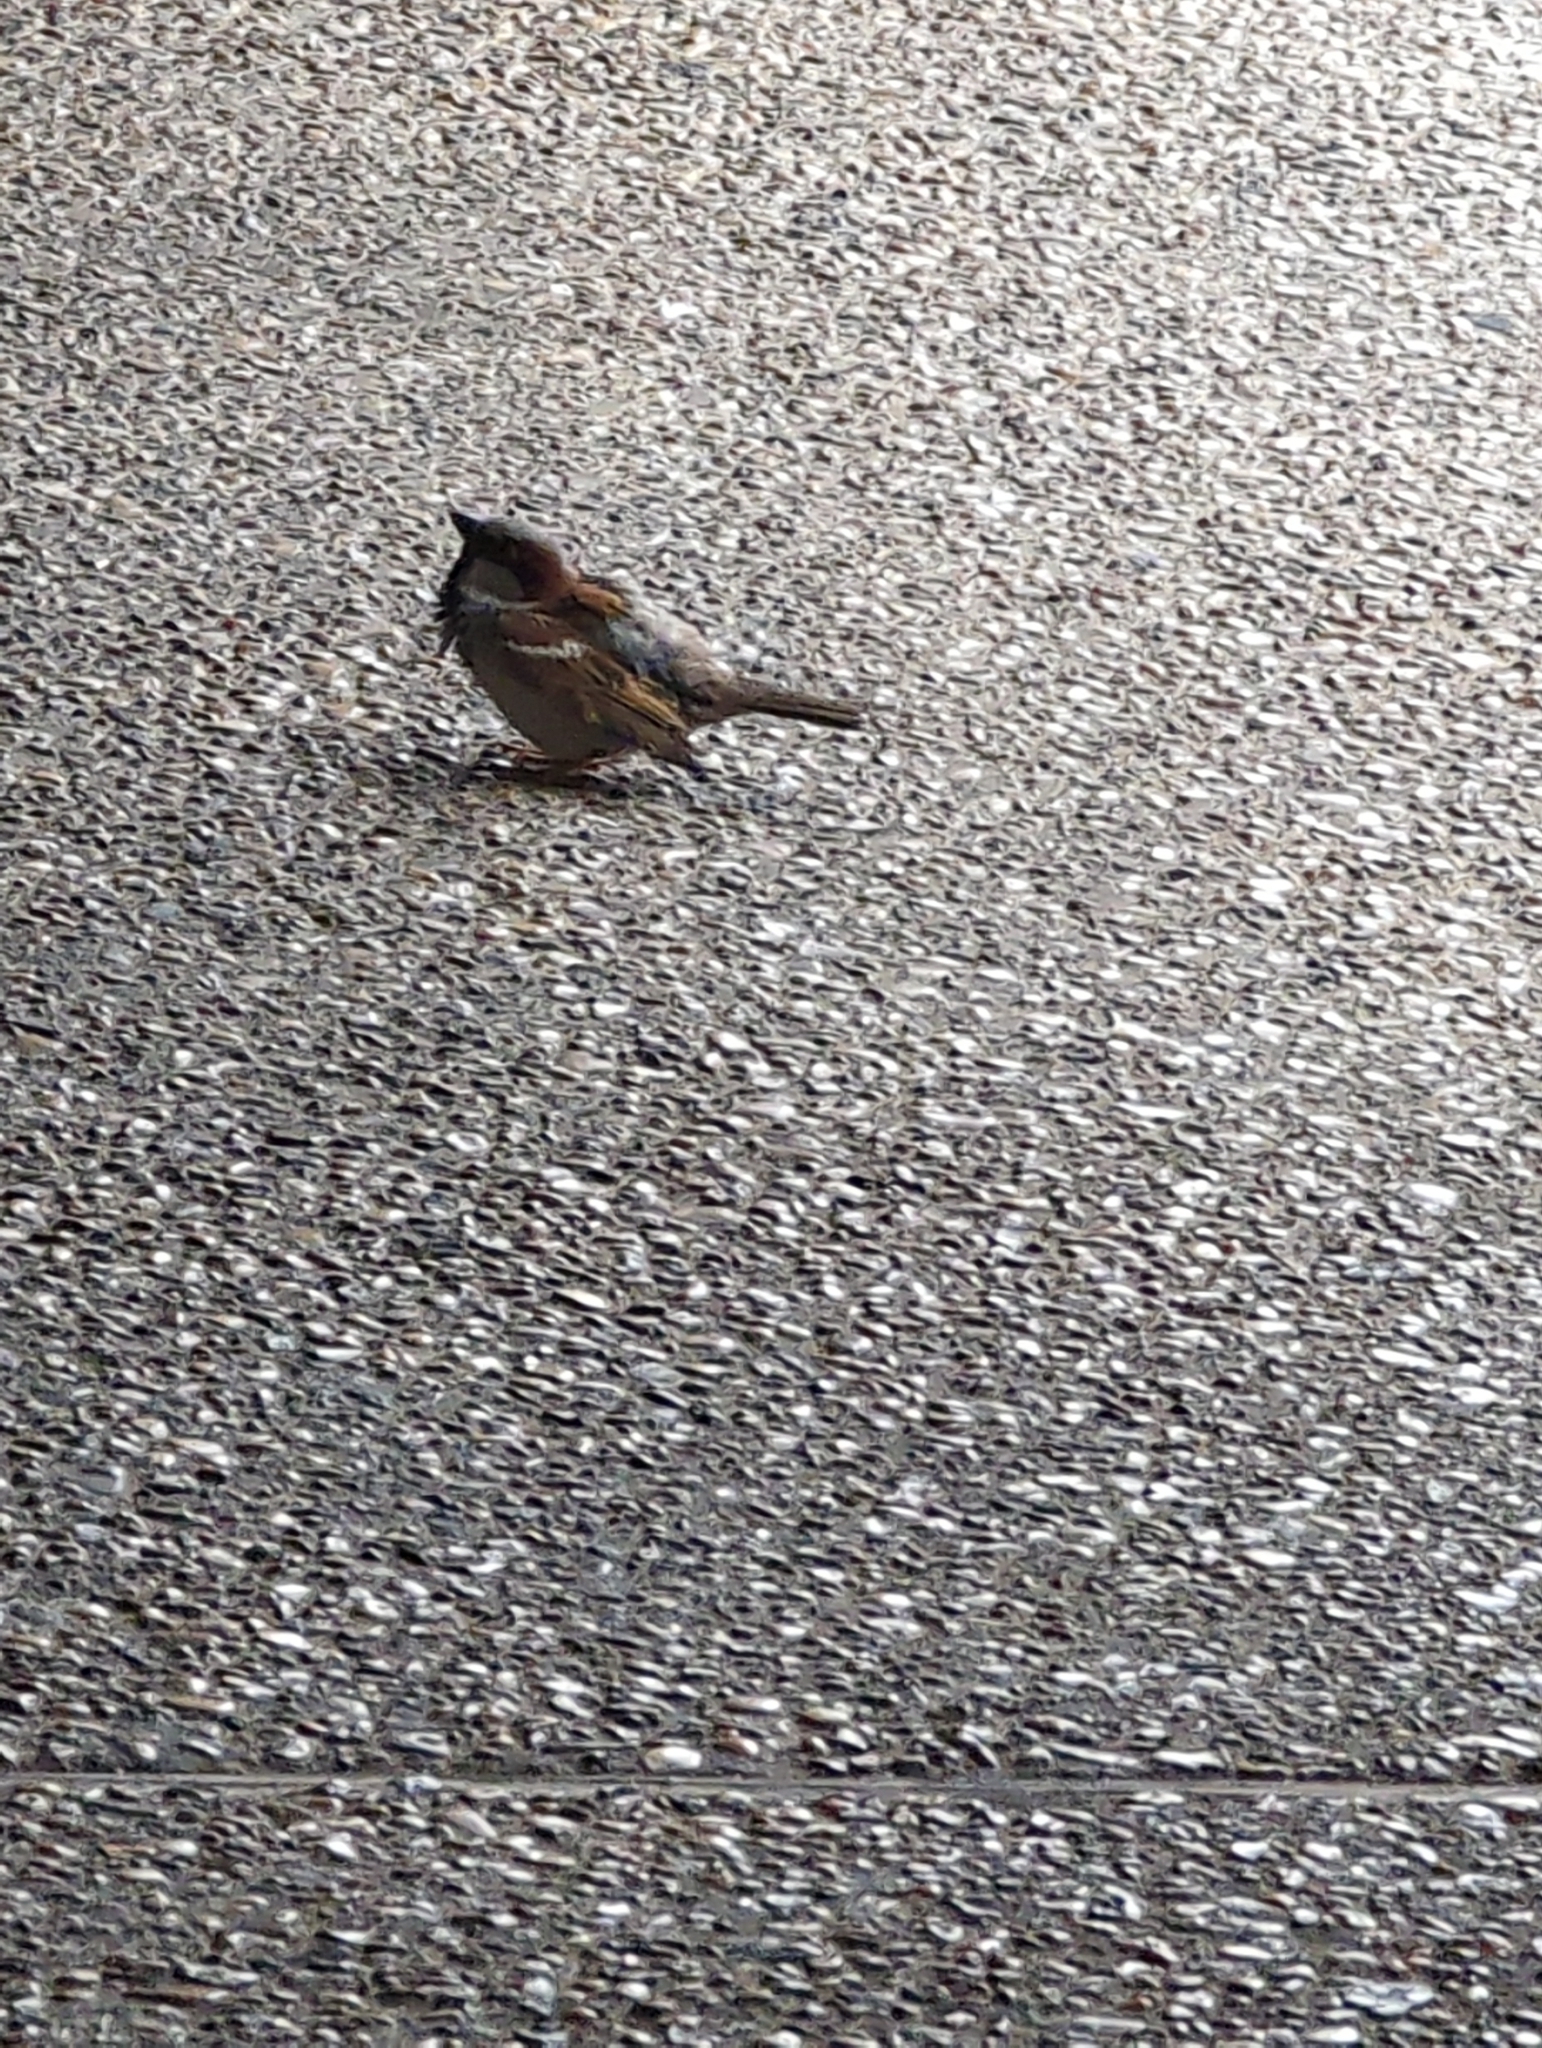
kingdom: Animalia
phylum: Chordata
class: Aves
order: Passeriformes
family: Passeridae
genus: Passer
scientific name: Passer domesticus
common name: House sparrow
